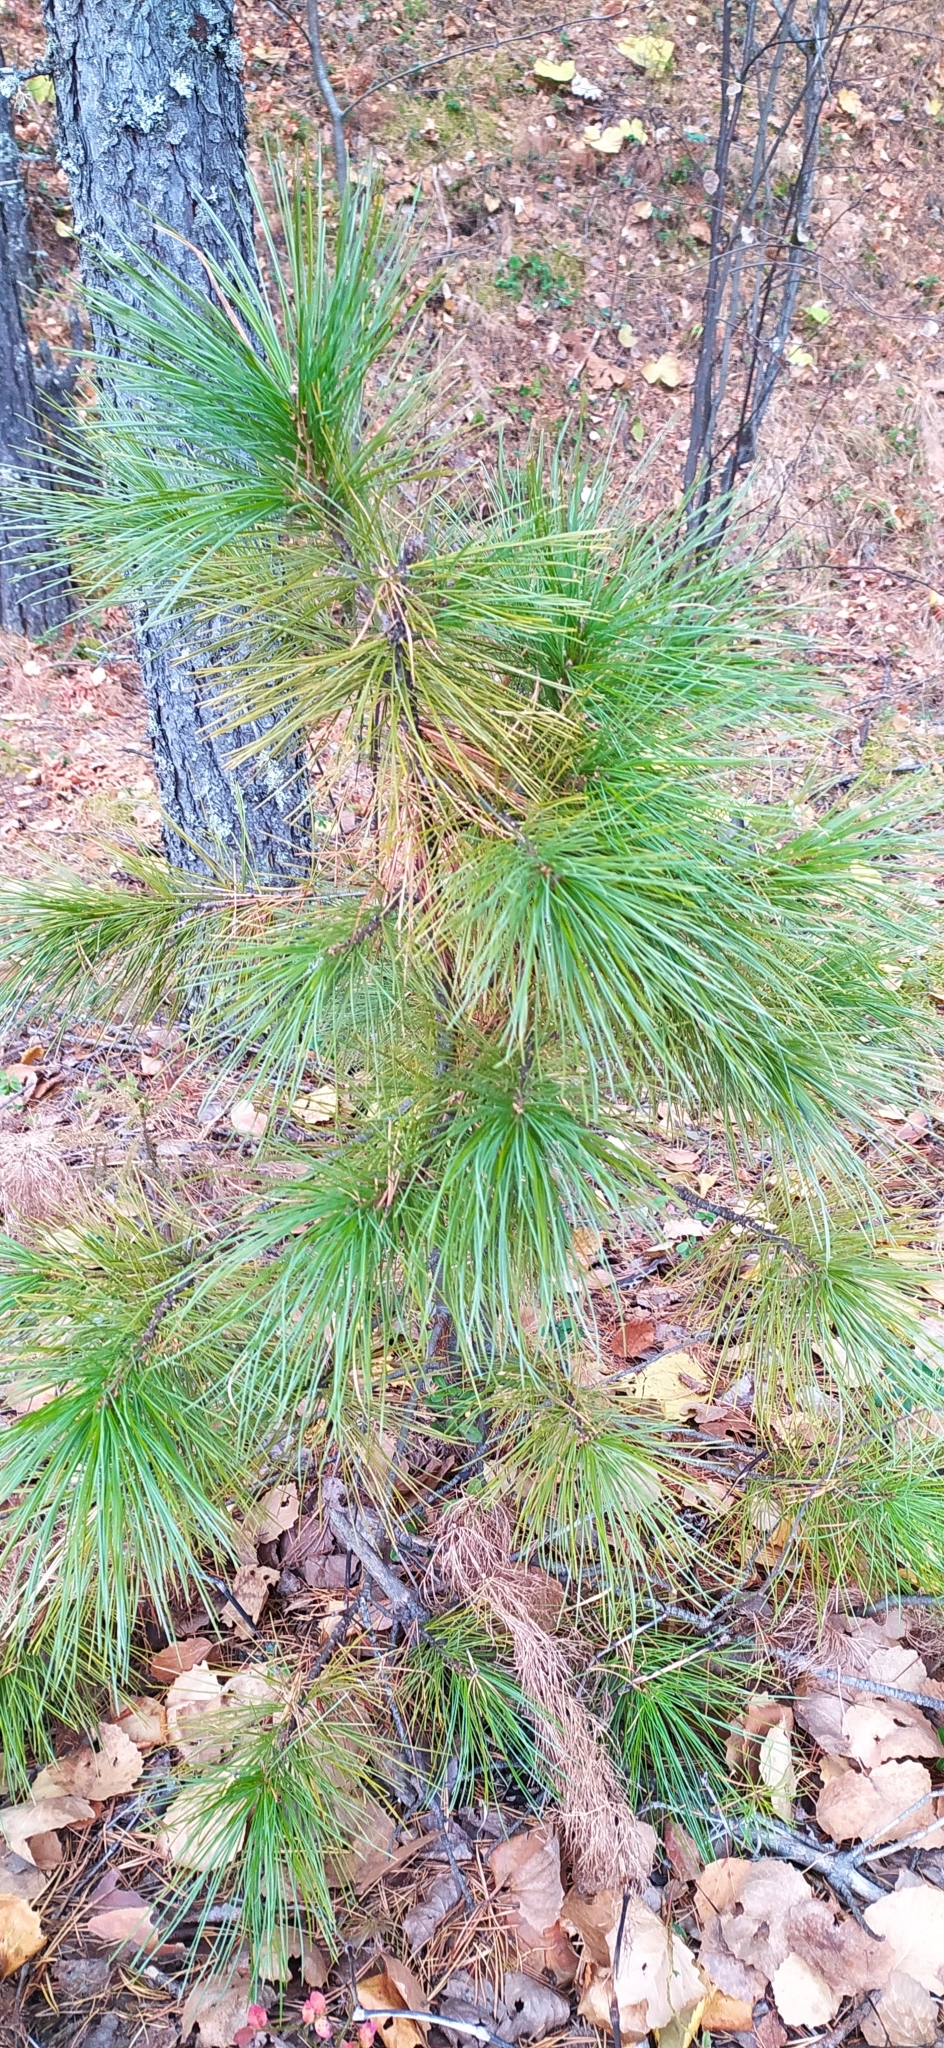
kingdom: Plantae
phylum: Tracheophyta
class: Pinopsida
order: Pinales
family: Pinaceae
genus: Pinus
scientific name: Pinus sibirica
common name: Siberian pine
